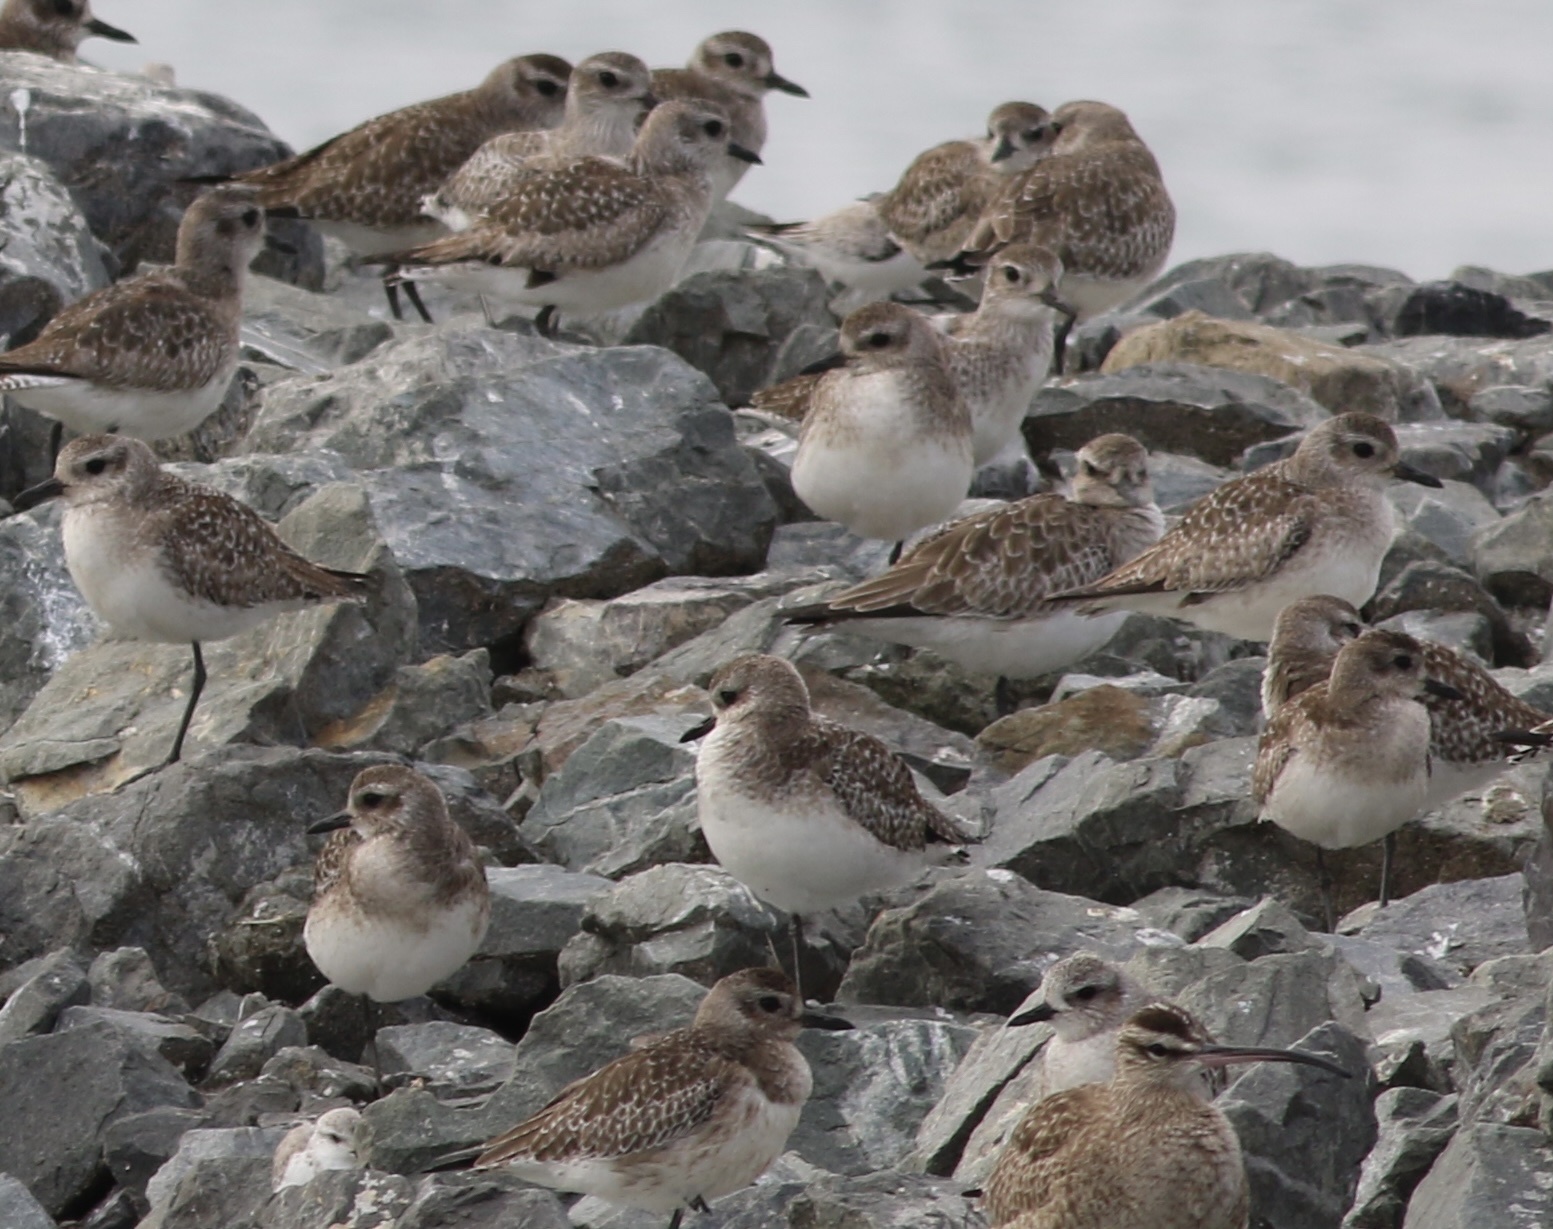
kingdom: Animalia
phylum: Chordata
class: Aves
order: Charadriiformes
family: Charadriidae
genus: Pluvialis
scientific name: Pluvialis squatarola
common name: Grey plover
